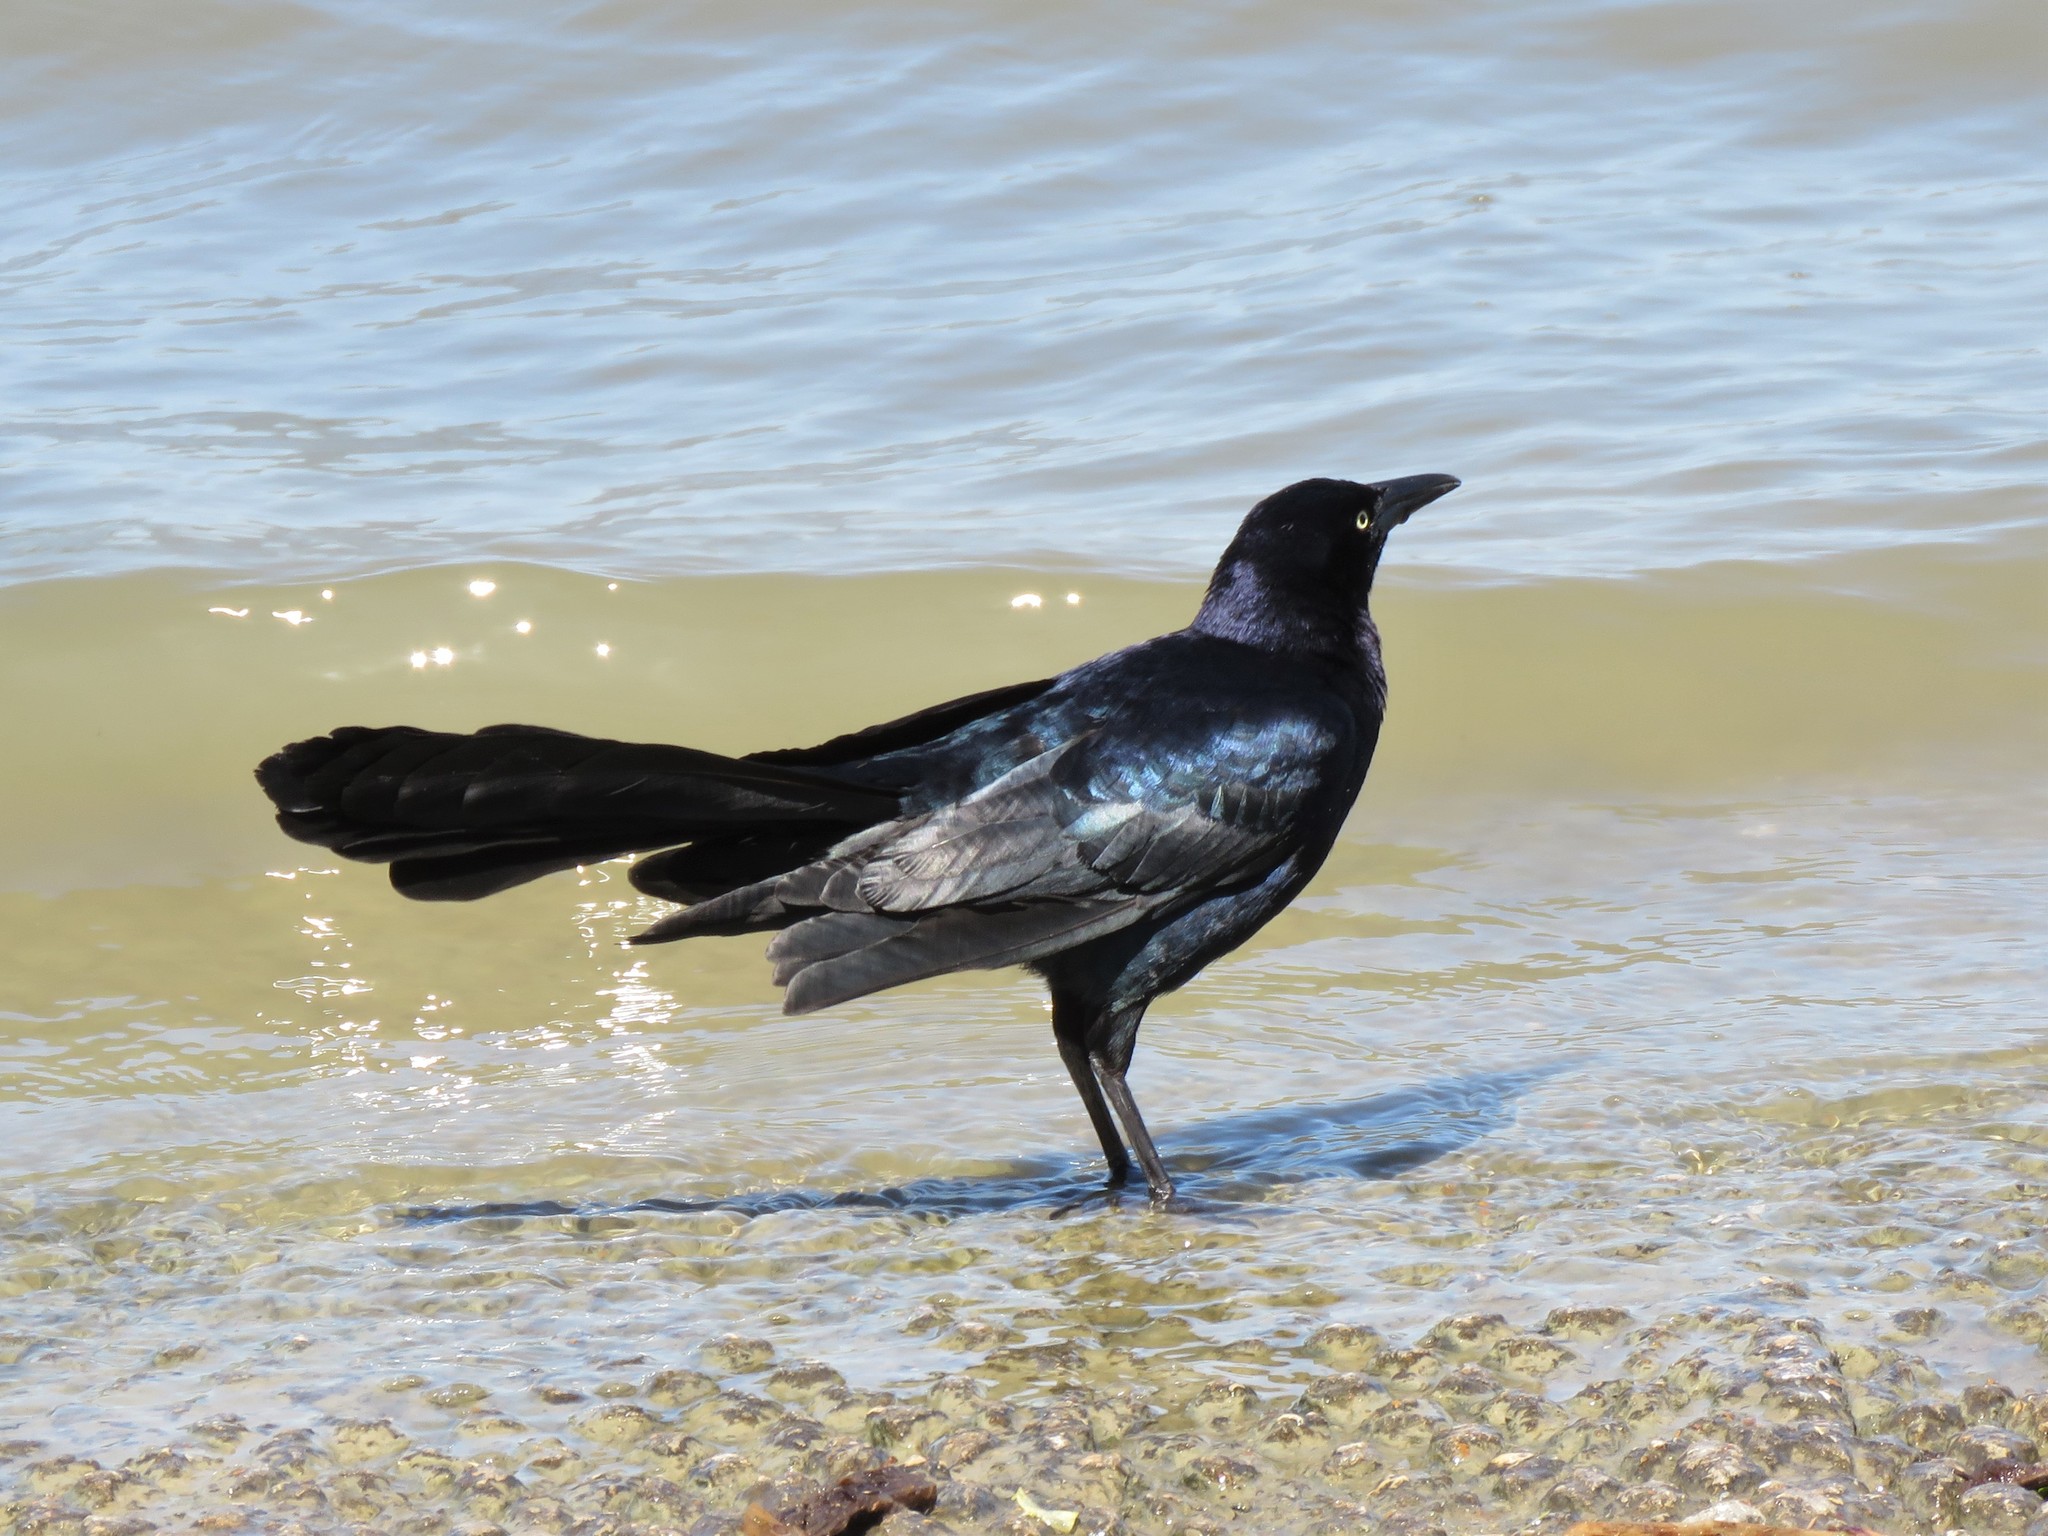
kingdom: Animalia
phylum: Chordata
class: Aves
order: Passeriformes
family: Icteridae
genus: Quiscalus
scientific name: Quiscalus mexicanus
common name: Great-tailed grackle
